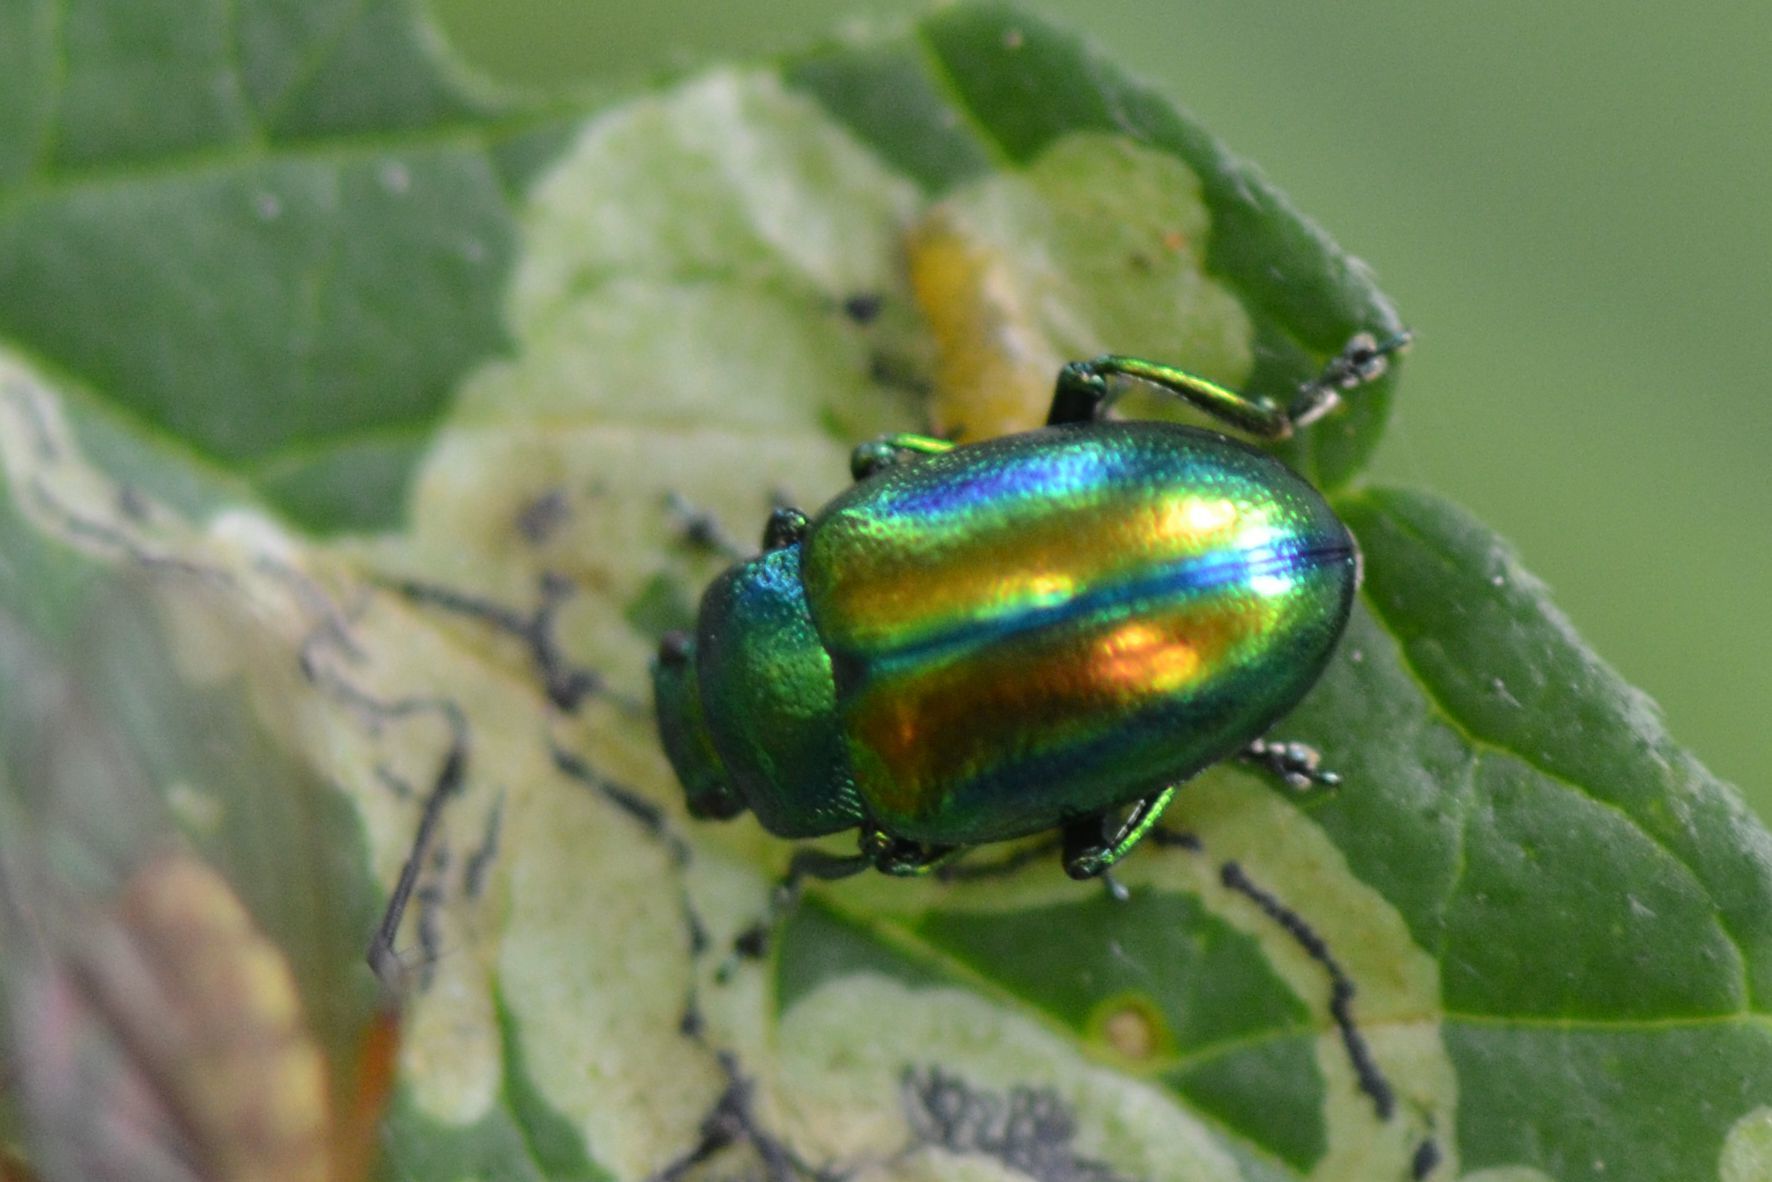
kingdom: Animalia
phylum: Arthropoda
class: Insecta
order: Coleoptera
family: Chrysomelidae
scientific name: Chrysomelidae
